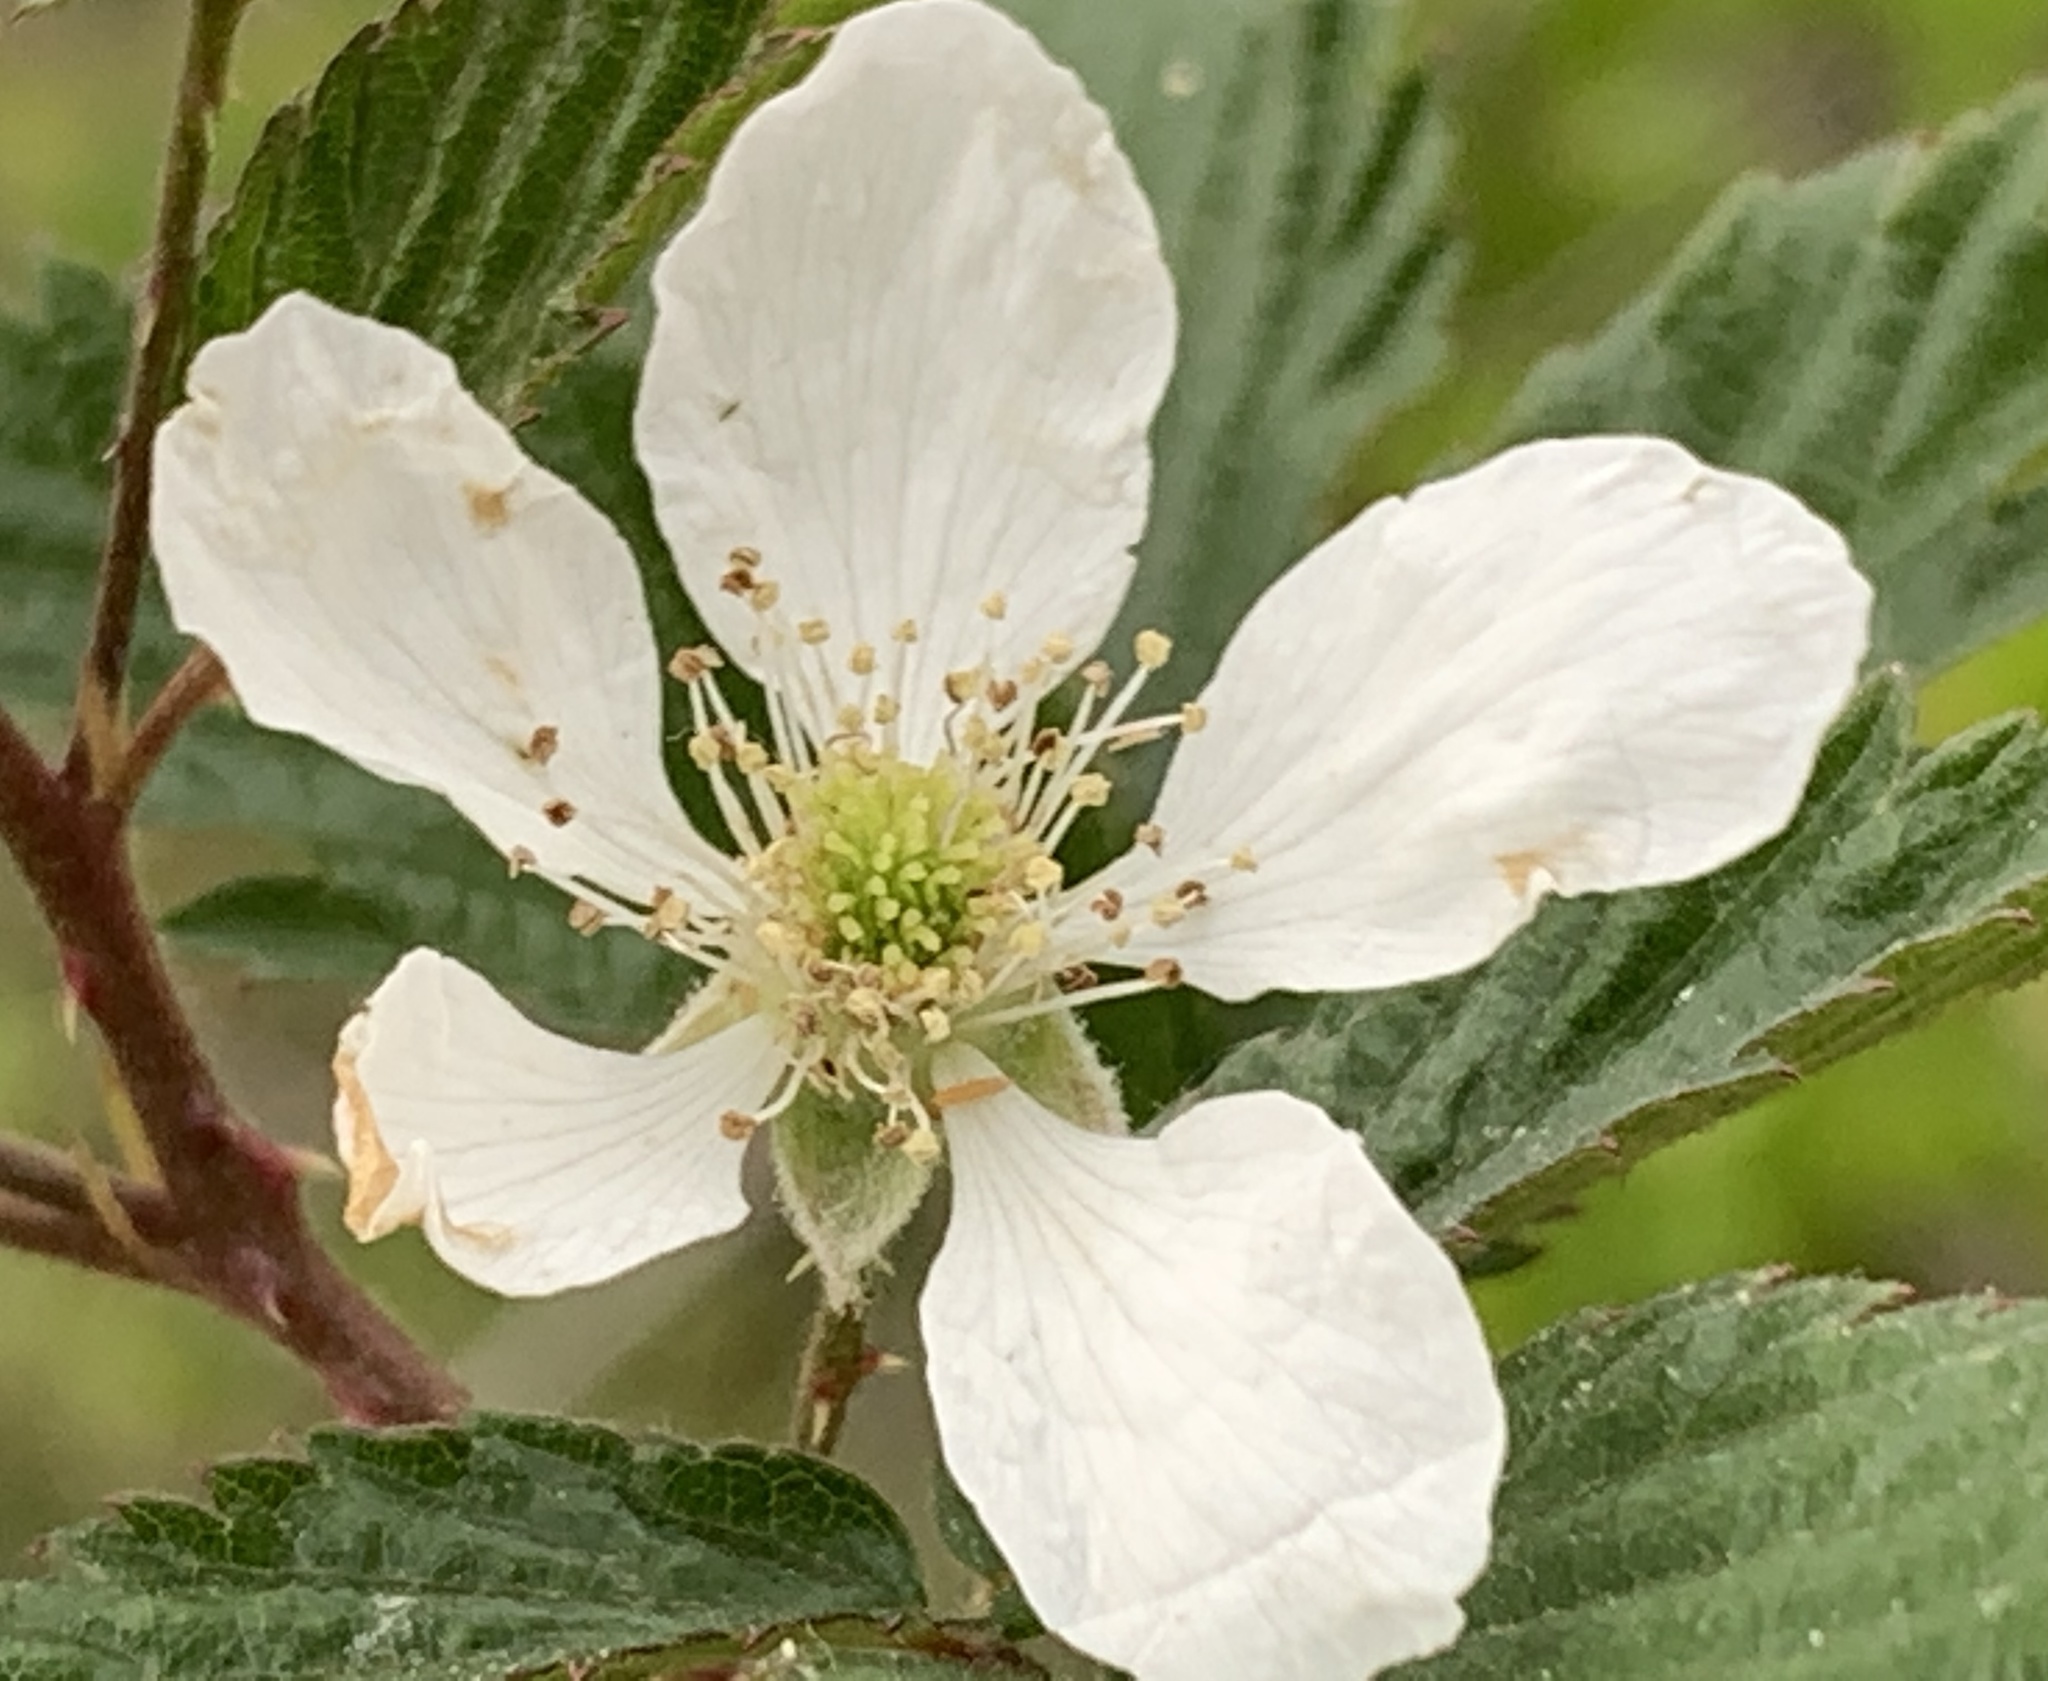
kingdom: Plantae
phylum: Tracheophyta
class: Magnoliopsida
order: Rosales
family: Rosaceae
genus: Rubus
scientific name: Rubus pensilvanicus
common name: Pennsylvania blackberry
